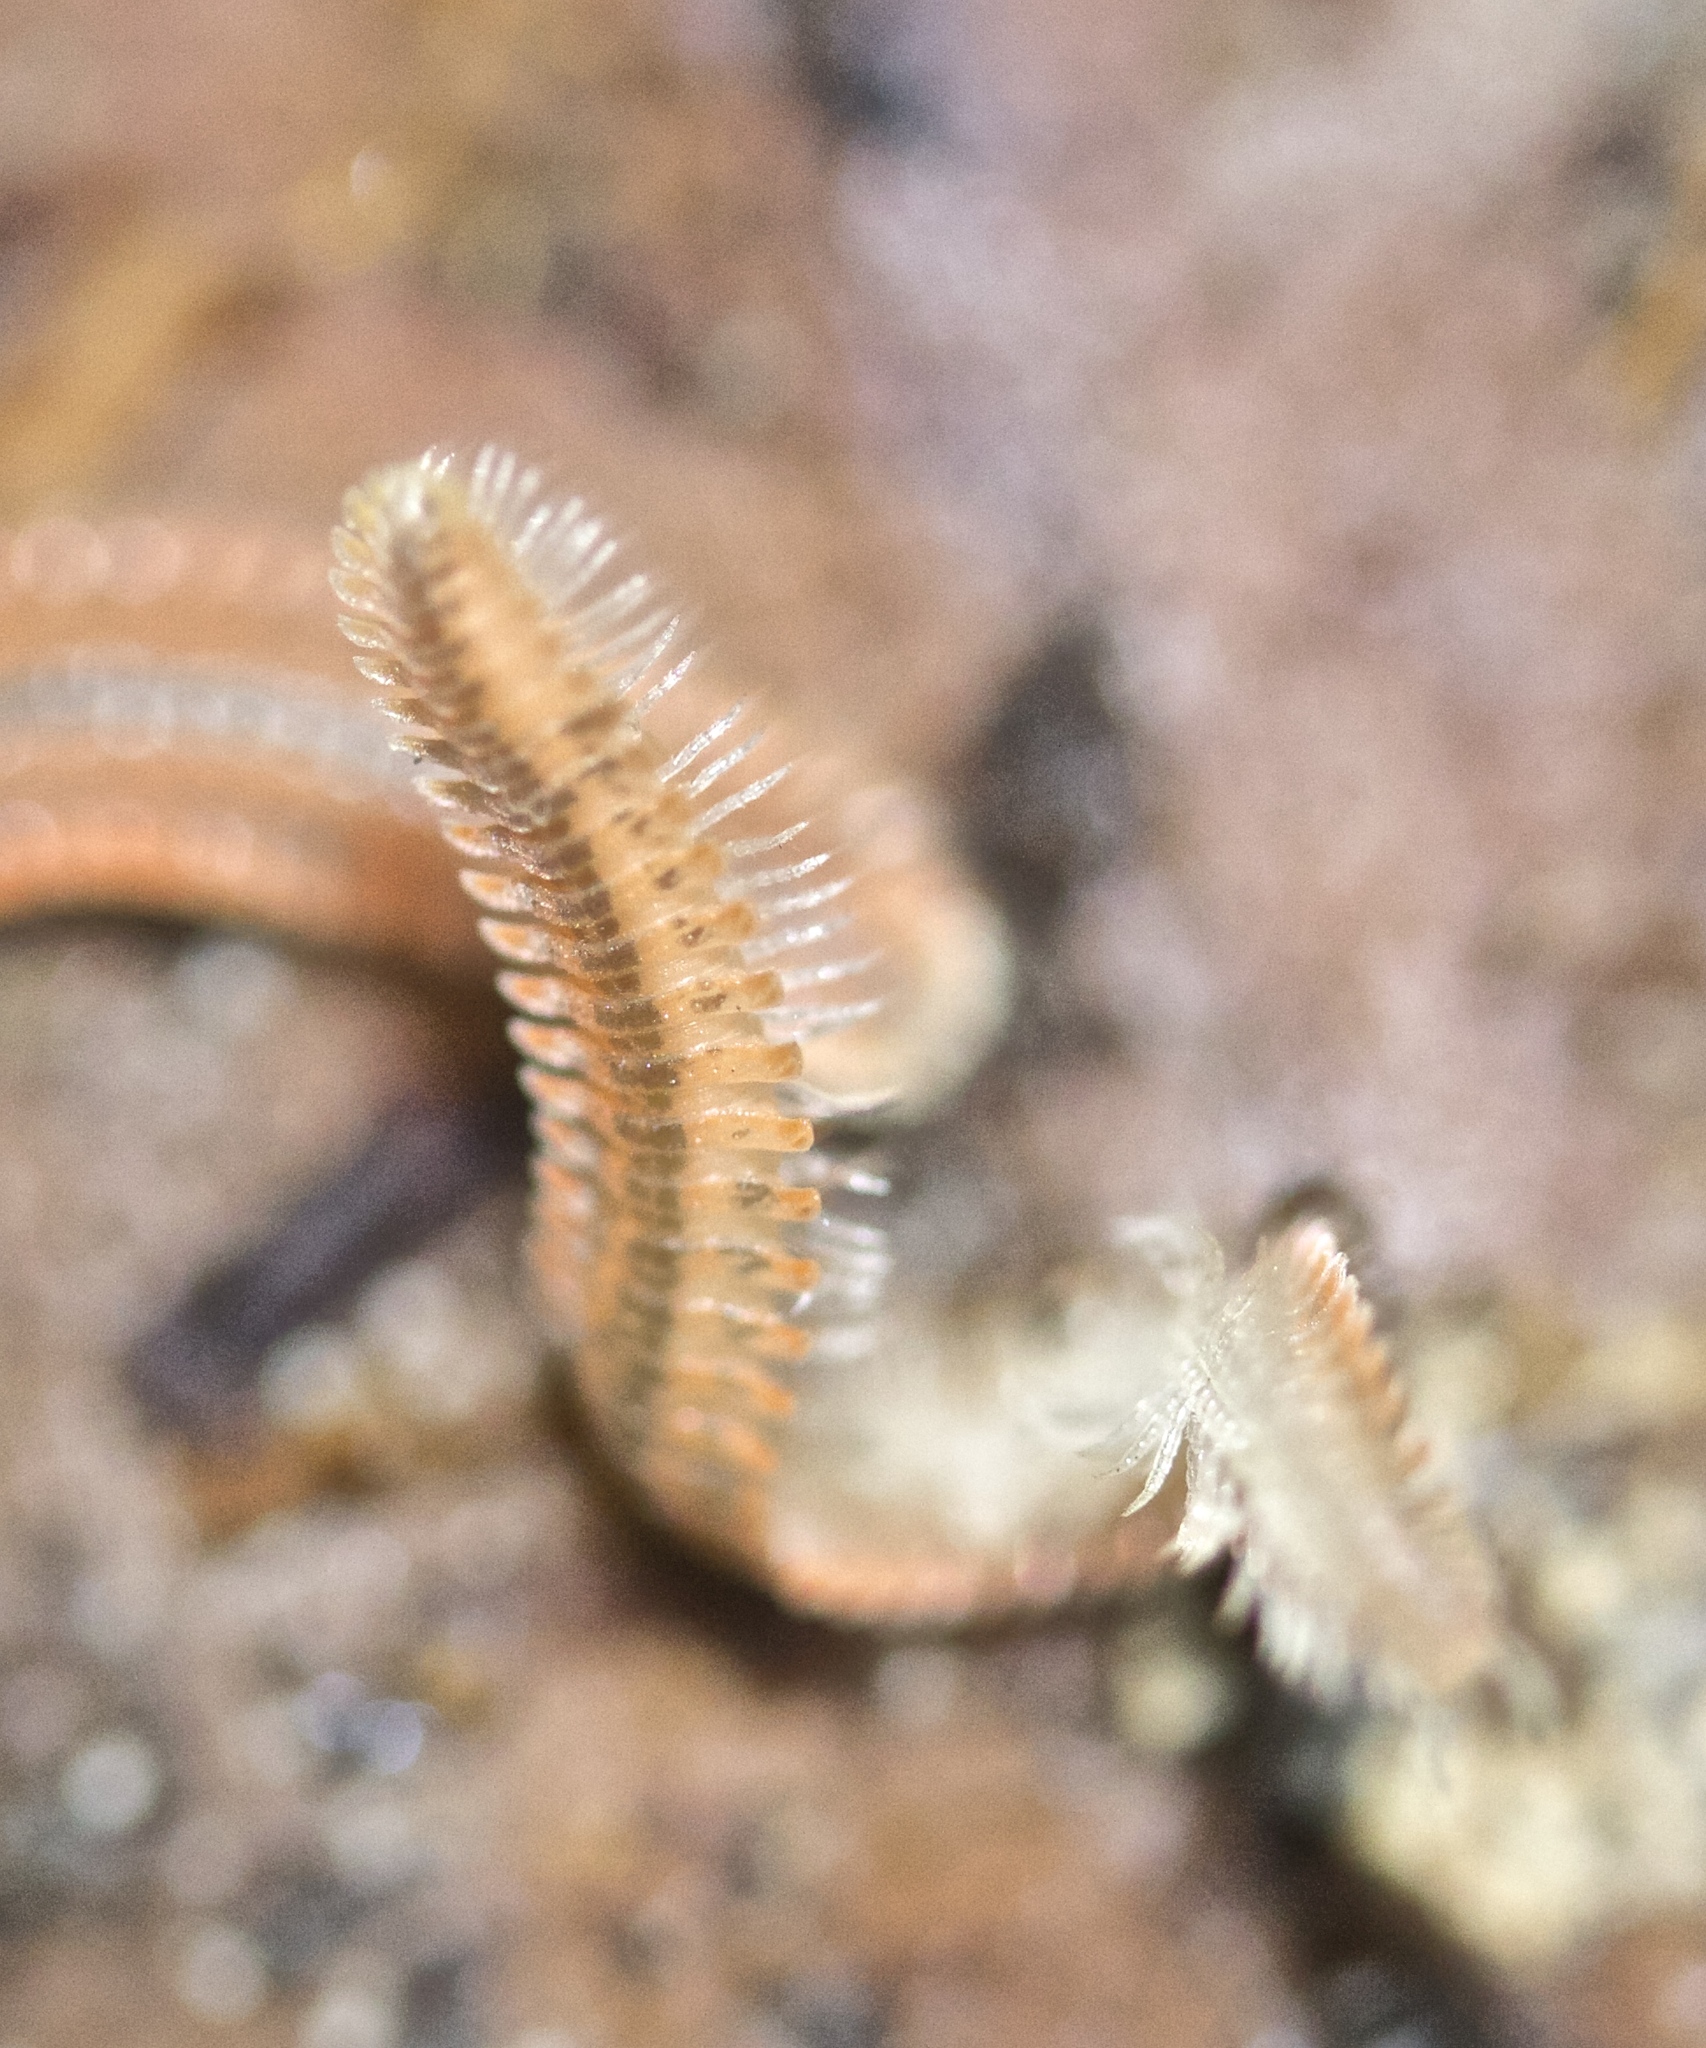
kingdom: Animalia
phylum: Arthropoda
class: Diplopoda
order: Platydesmida
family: Andrognathidae
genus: Brachycybe
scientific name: Brachycybe producta
